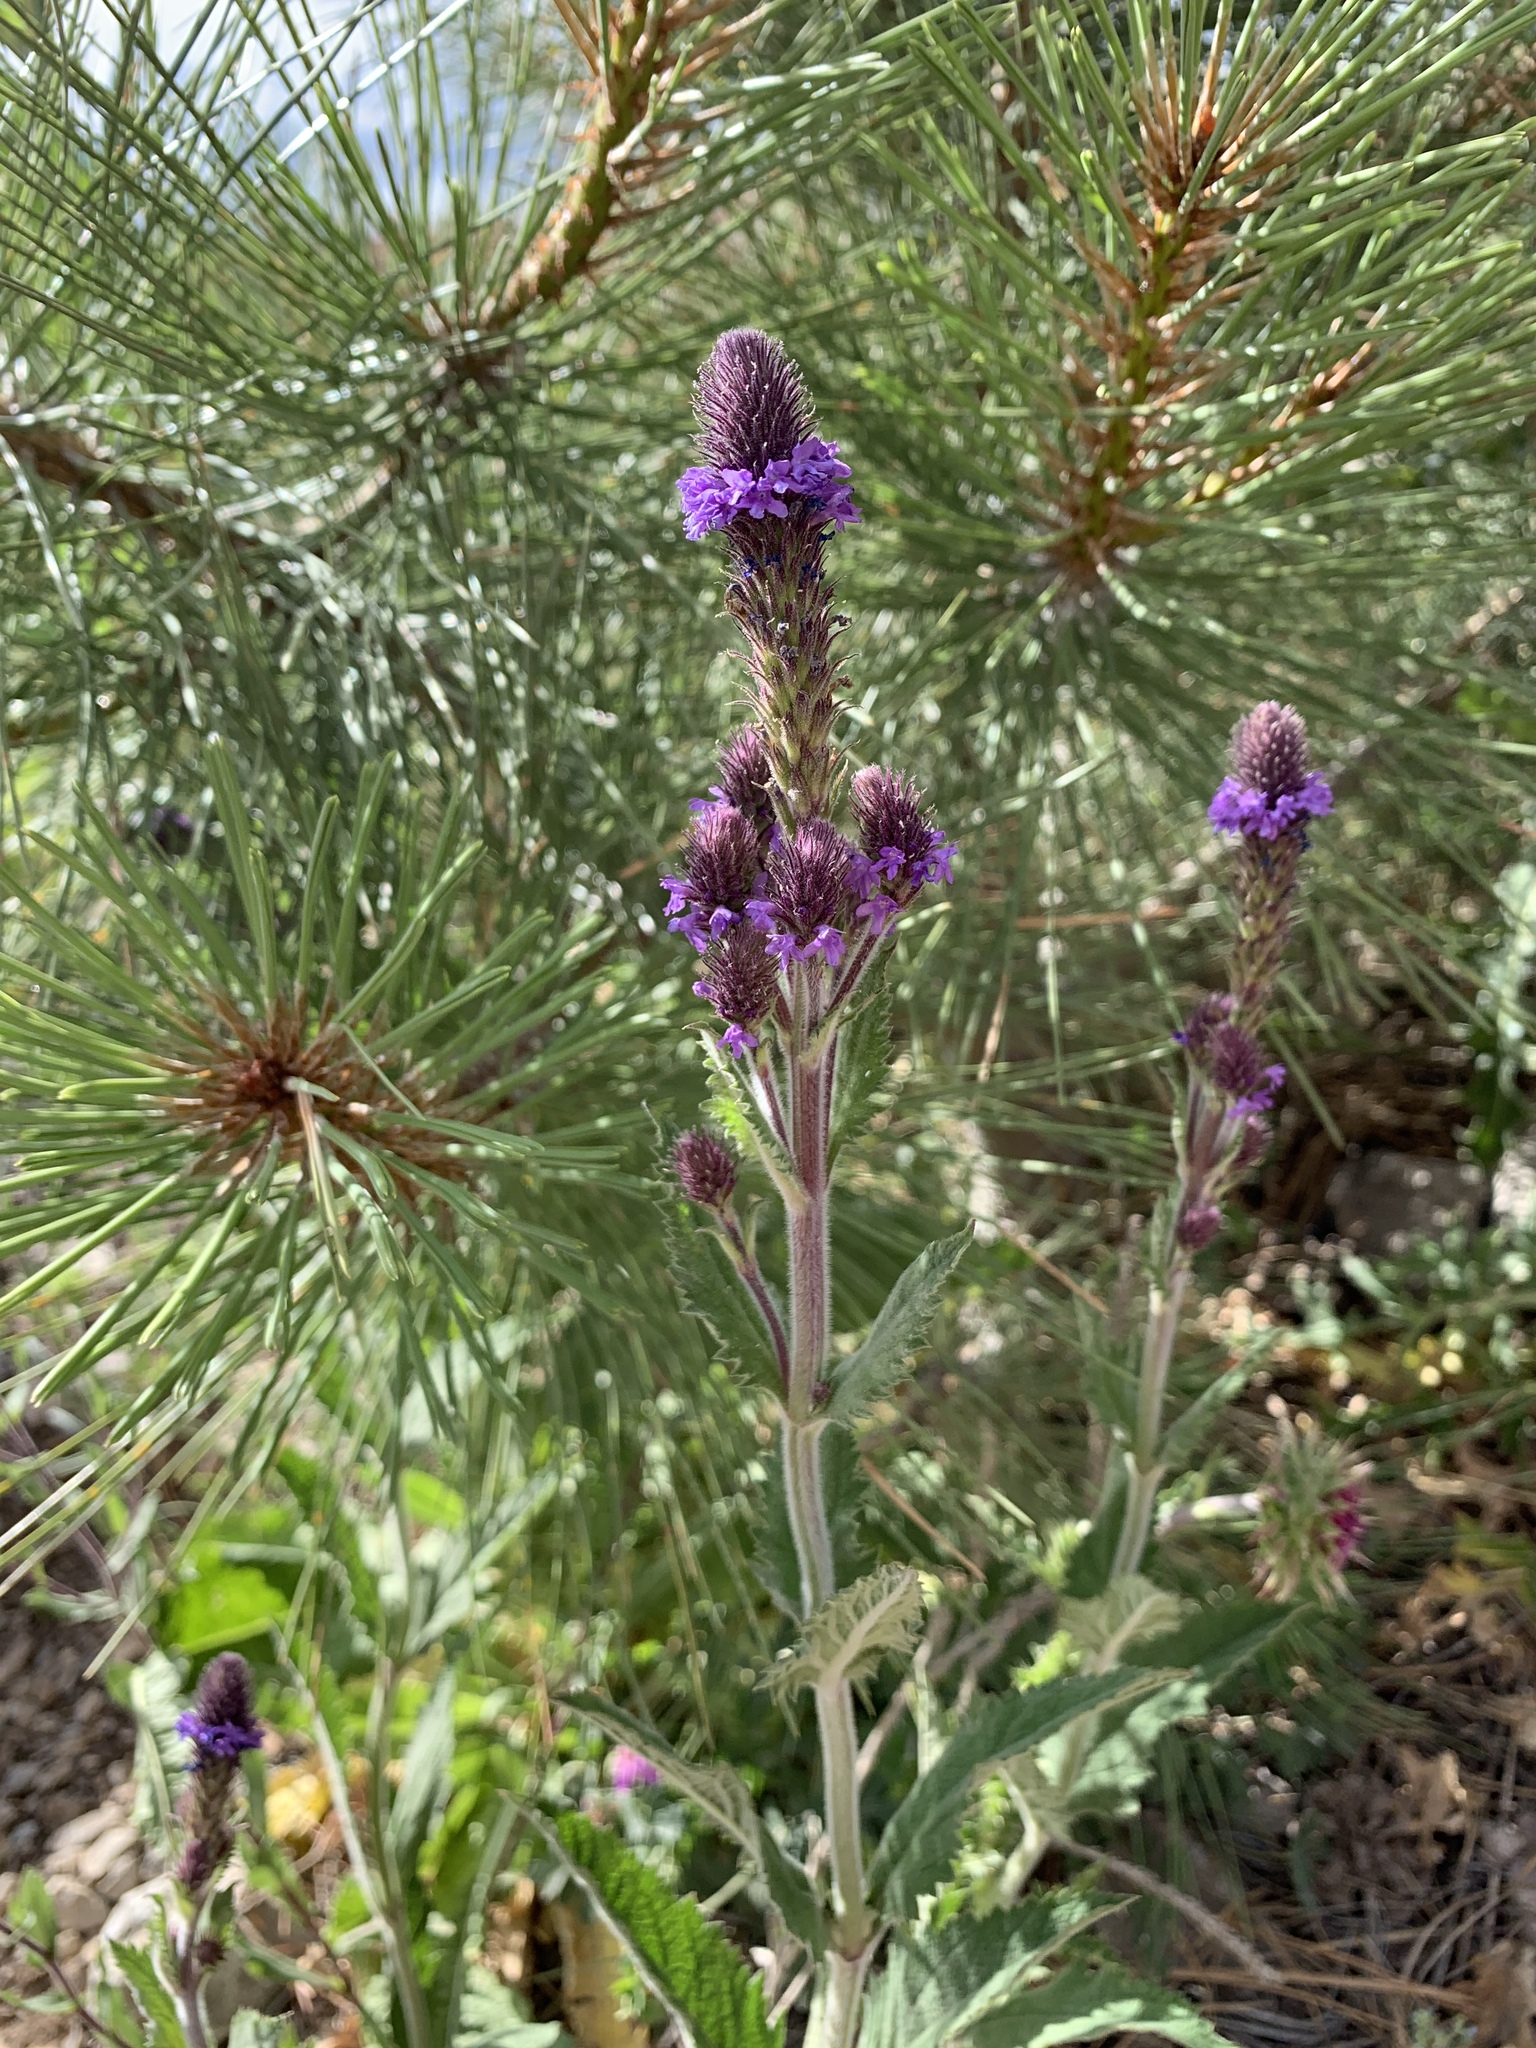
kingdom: Plantae
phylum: Tracheophyta
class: Magnoliopsida
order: Lamiales
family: Verbenaceae
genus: Verbena
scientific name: Verbena macdougalii
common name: New mexico vervain
